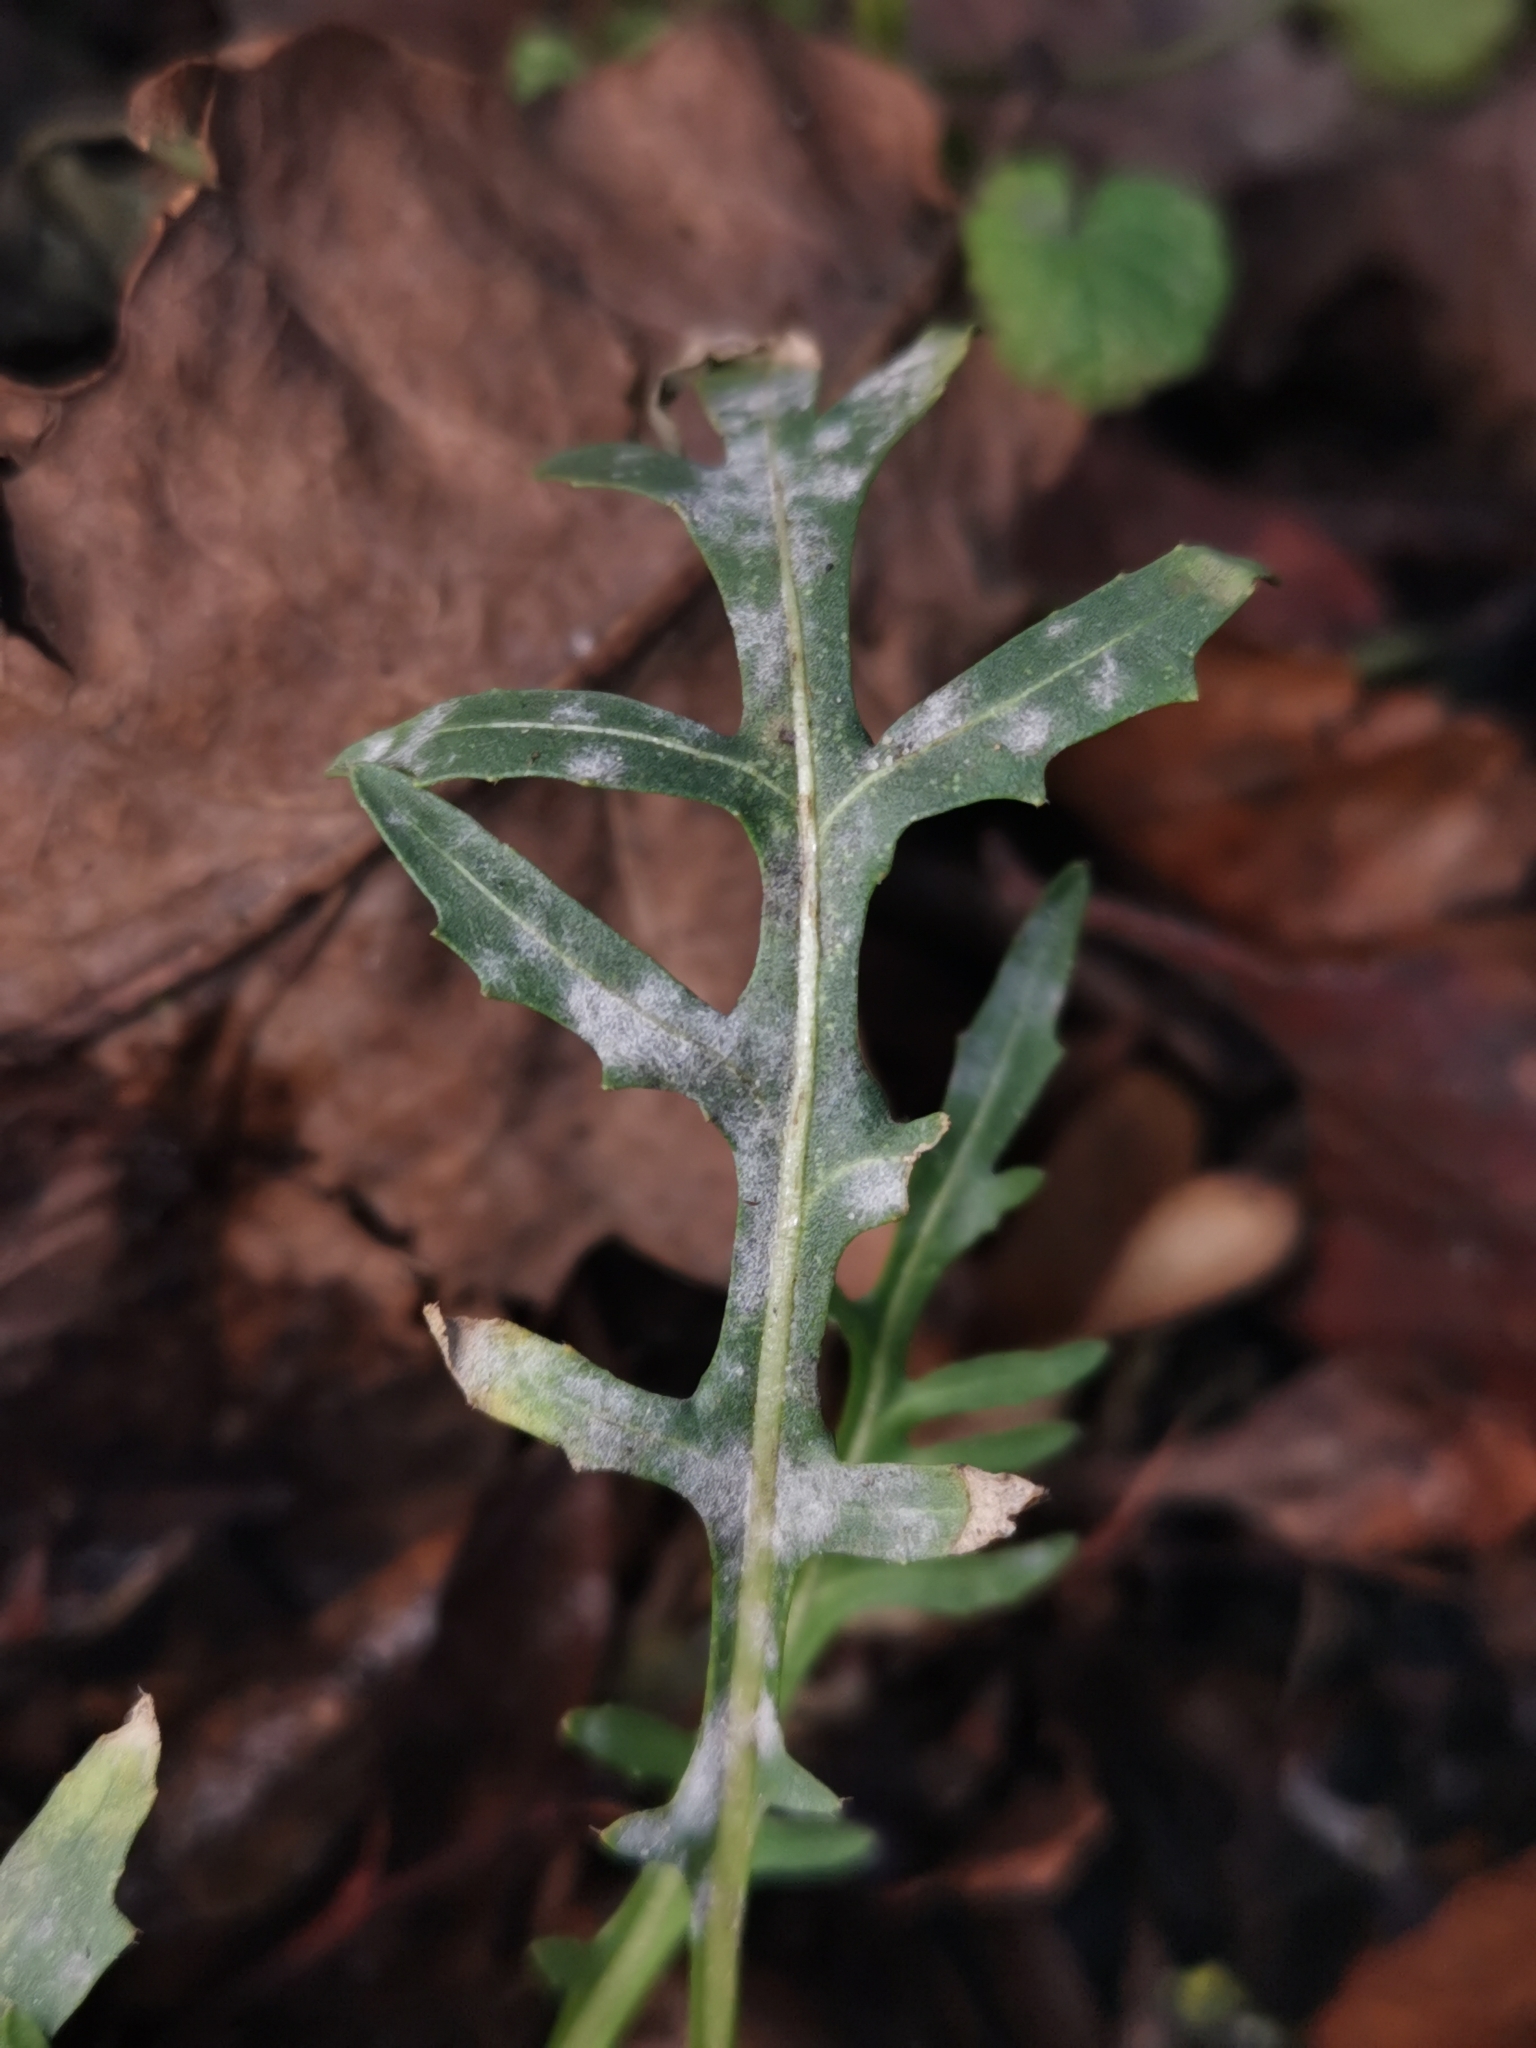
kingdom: Fungi
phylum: Ascomycota
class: Leotiomycetes
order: Helotiales
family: Erysiphaceae
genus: Erysiphe
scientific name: Erysiphe cruciferarum
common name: Brassica powdery mildew
